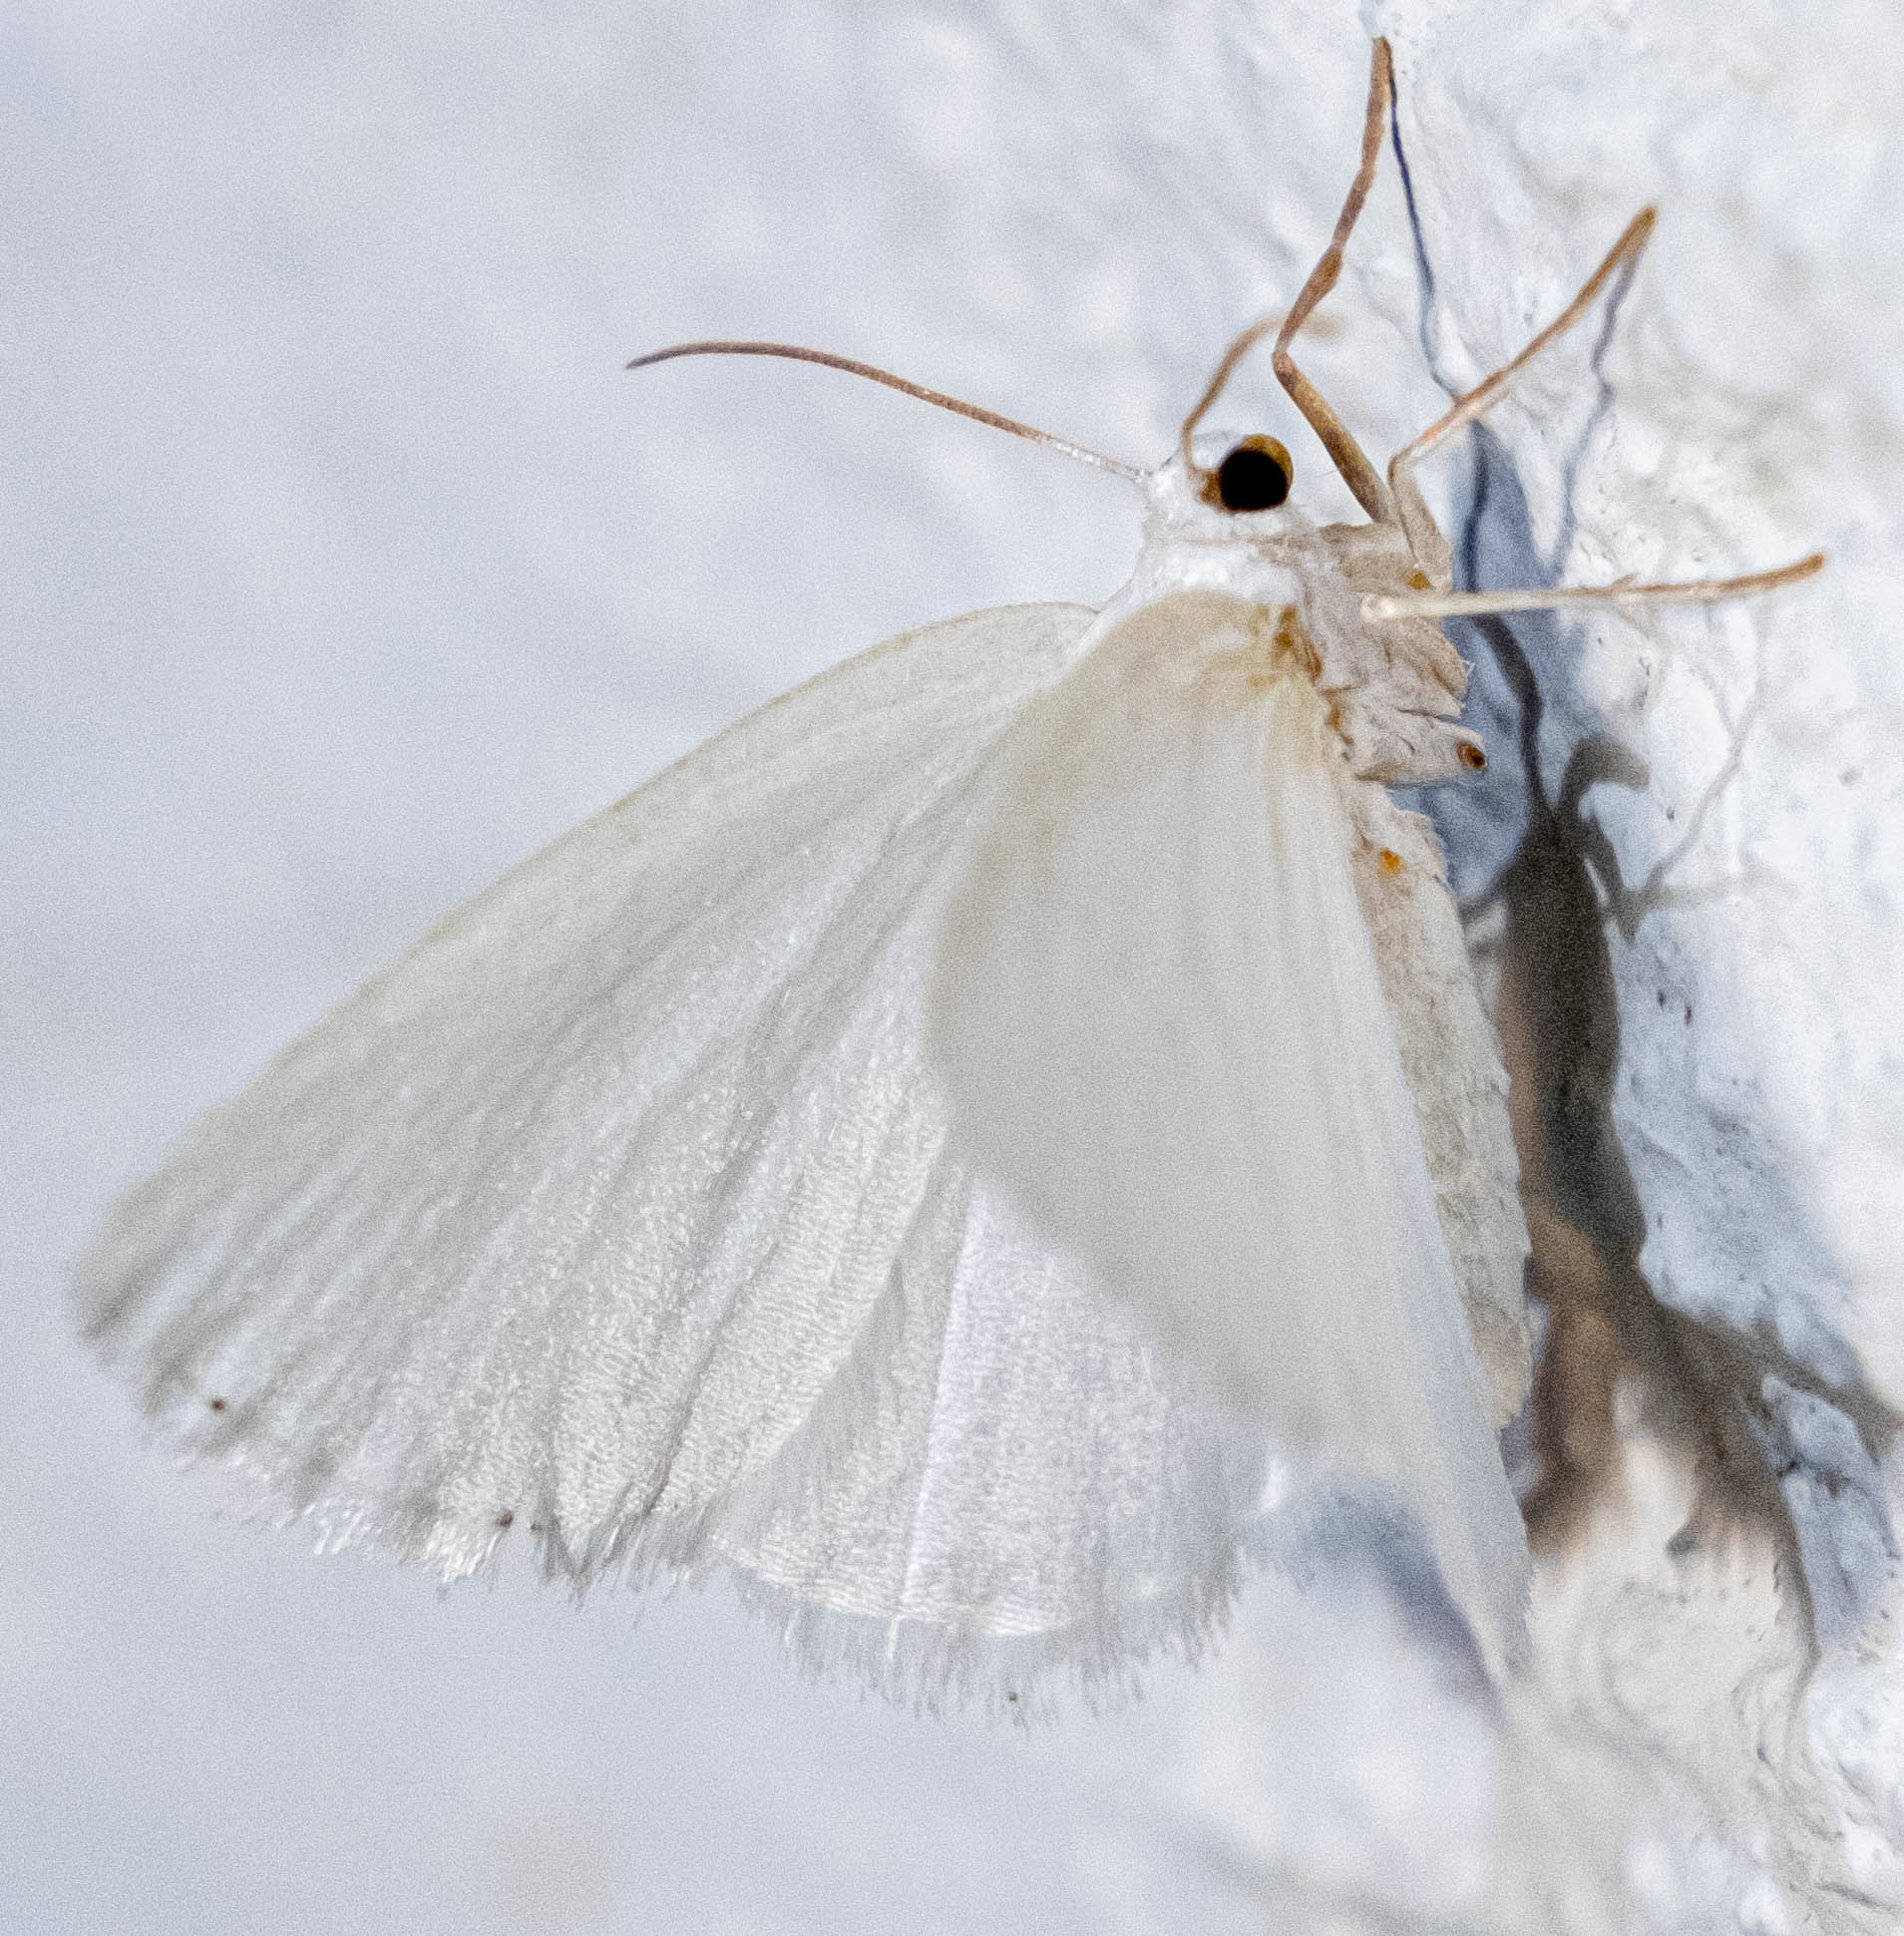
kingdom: Animalia
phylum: Arthropoda
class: Insecta
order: Lepidoptera
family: Geometridae
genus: Lomographa
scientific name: Lomographa vestaliata
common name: White spring moth
